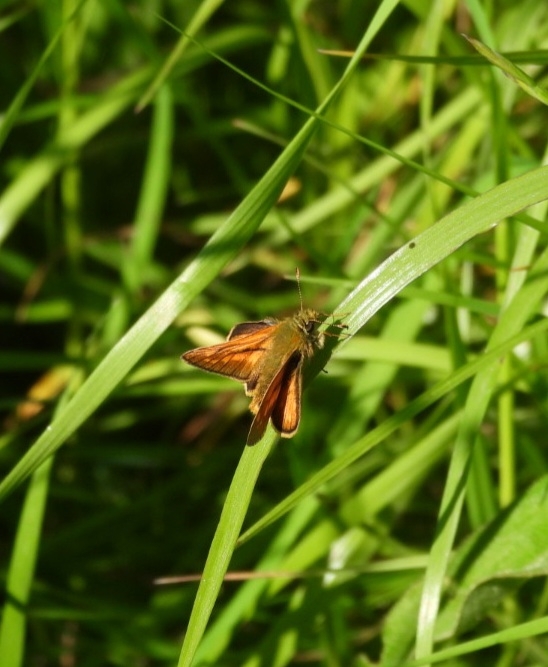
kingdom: Animalia
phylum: Arthropoda
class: Insecta
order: Lepidoptera
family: Hesperiidae
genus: Ochlodes
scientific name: Ochlodes venata
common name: Large skipper
